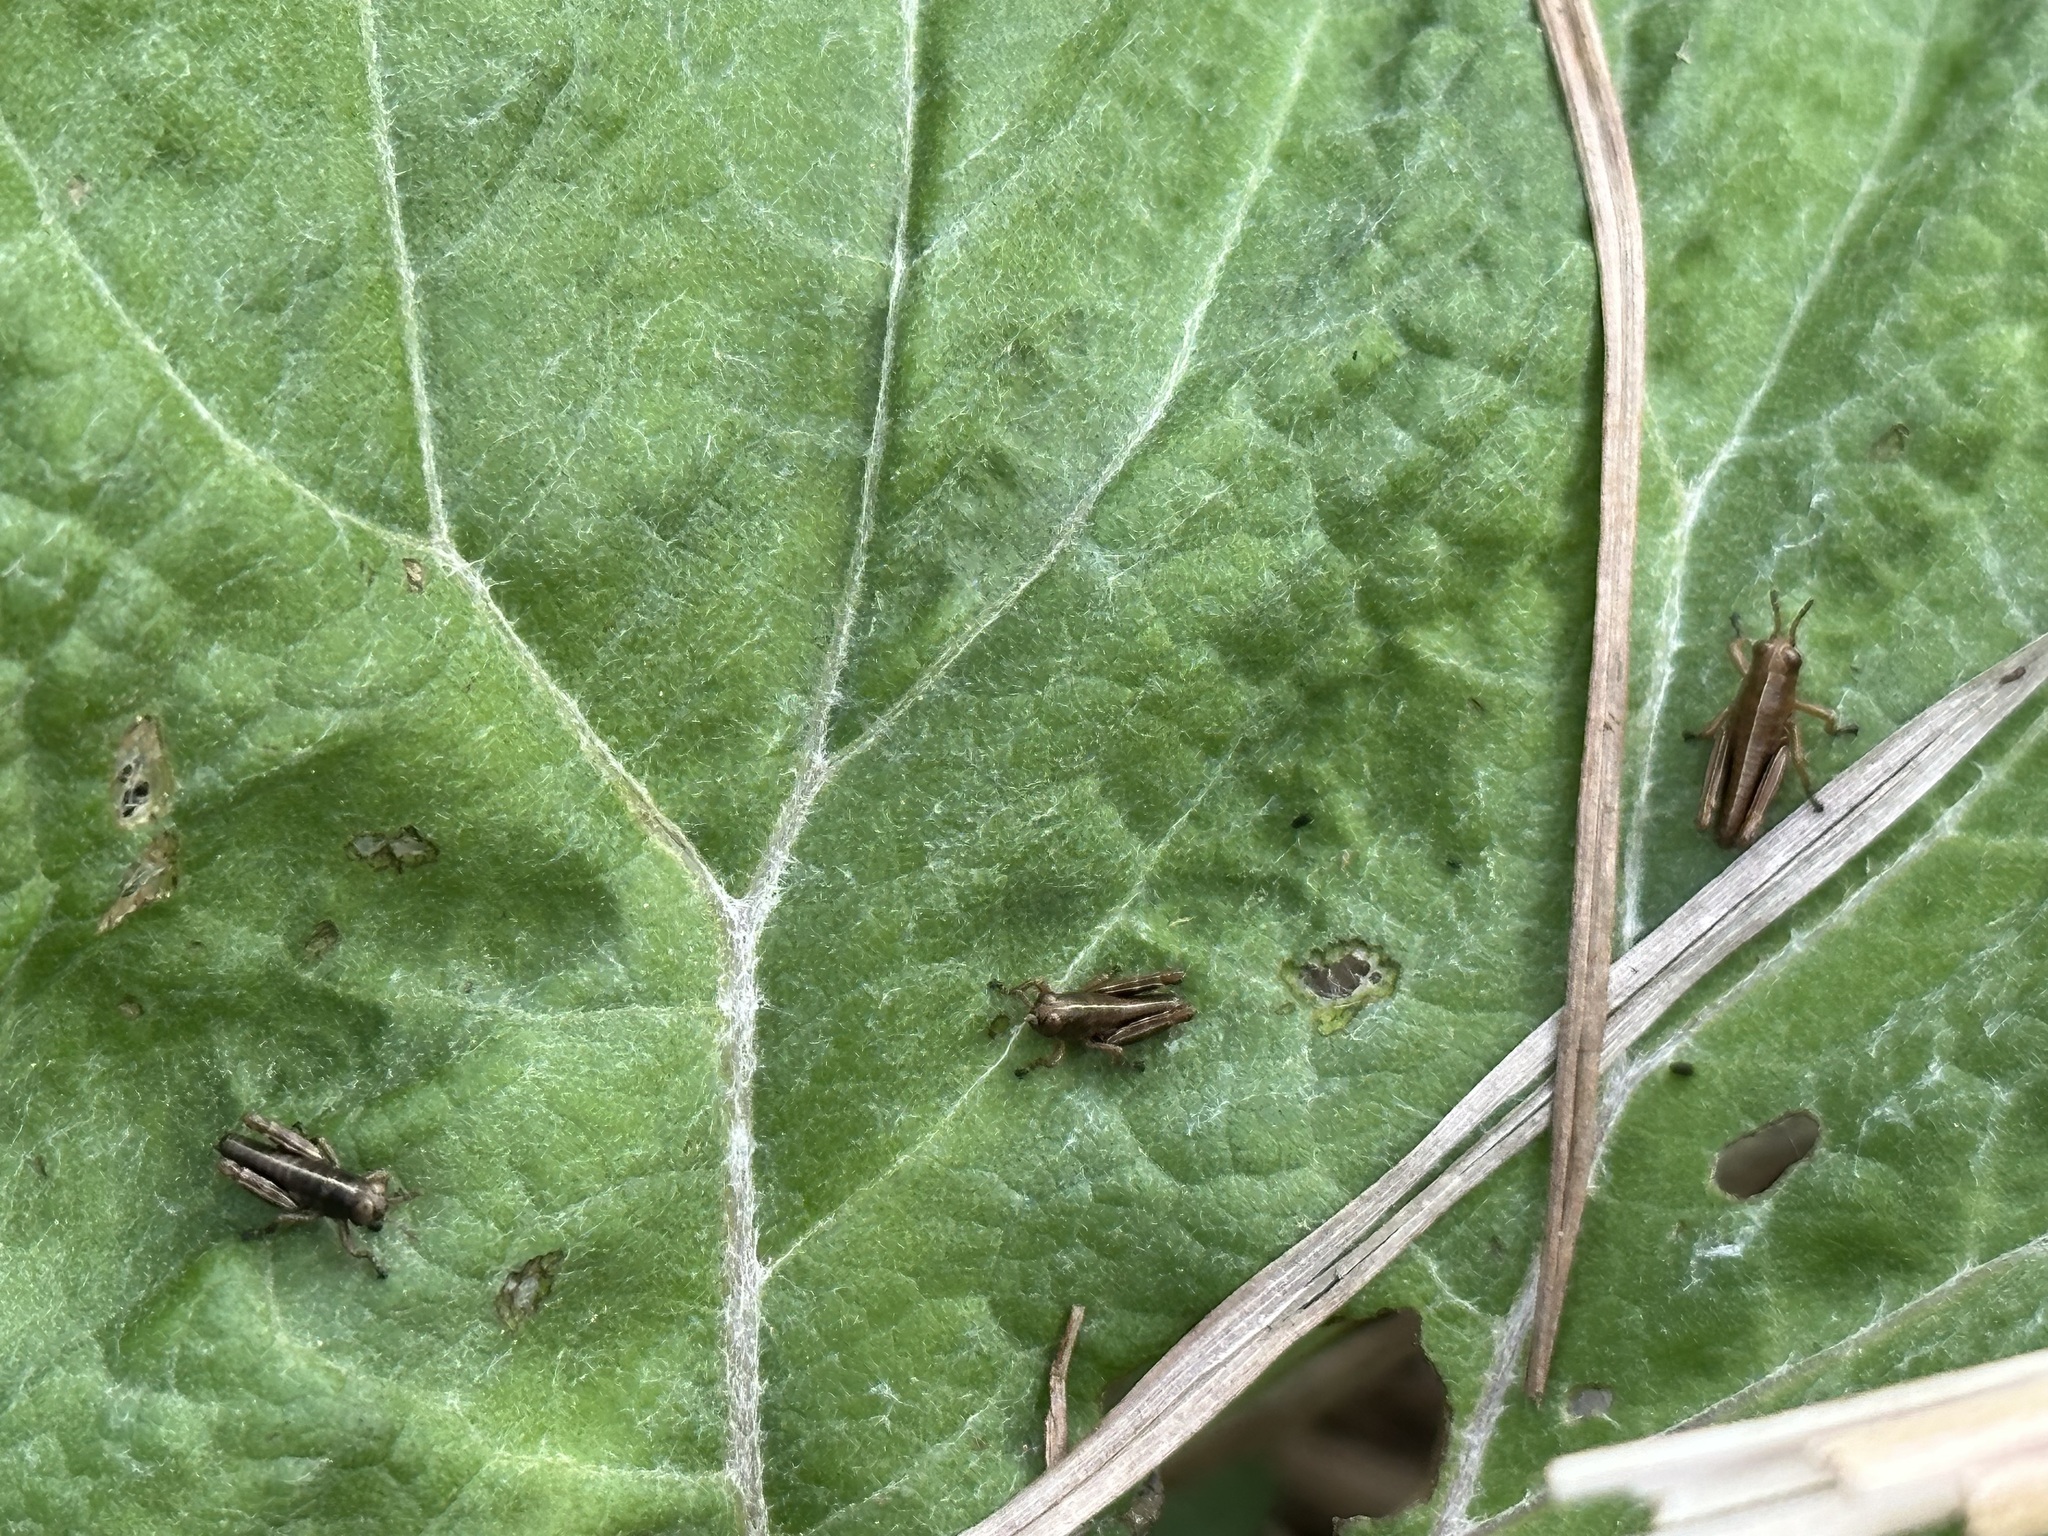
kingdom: Animalia
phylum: Arthropoda
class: Insecta
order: Orthoptera
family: Acrididae
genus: Miramella
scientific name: Miramella alpina
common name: Green mountain grasshopper
